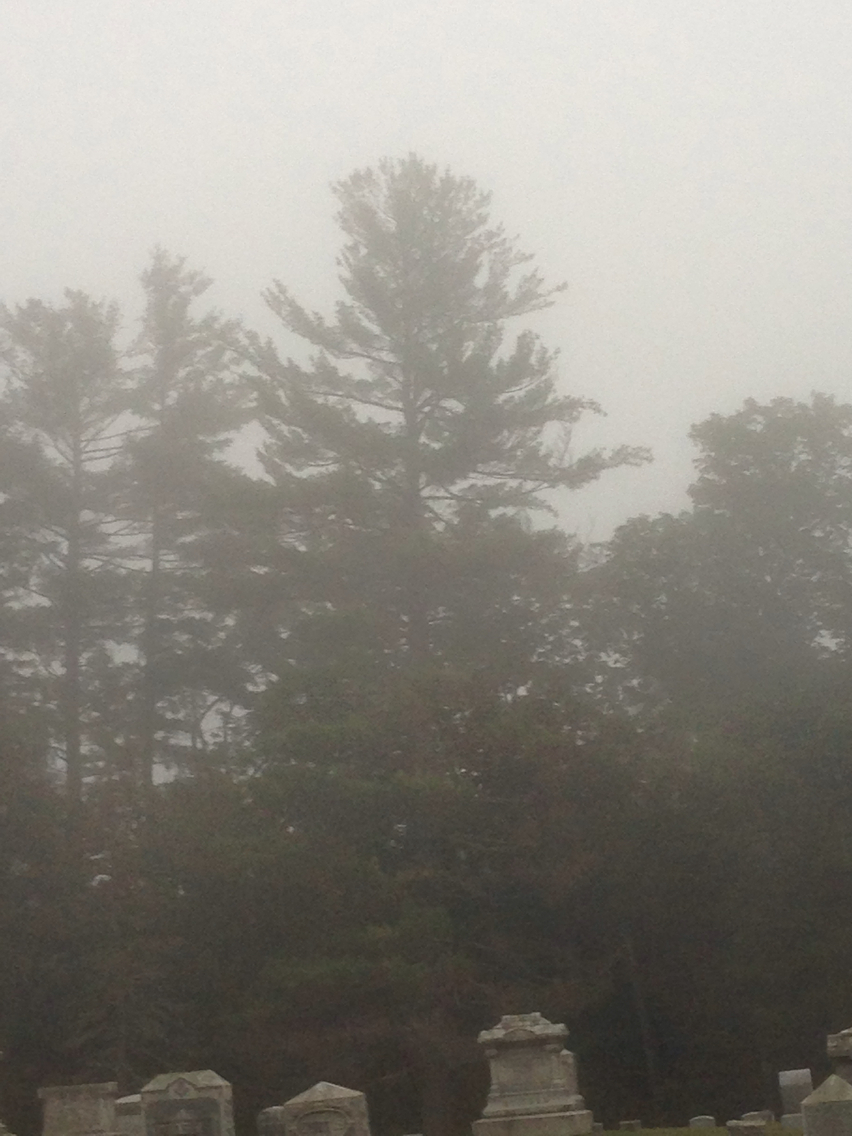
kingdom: Plantae
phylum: Tracheophyta
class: Pinopsida
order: Pinales
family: Pinaceae
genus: Pinus
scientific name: Pinus strobus
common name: Weymouth pine
